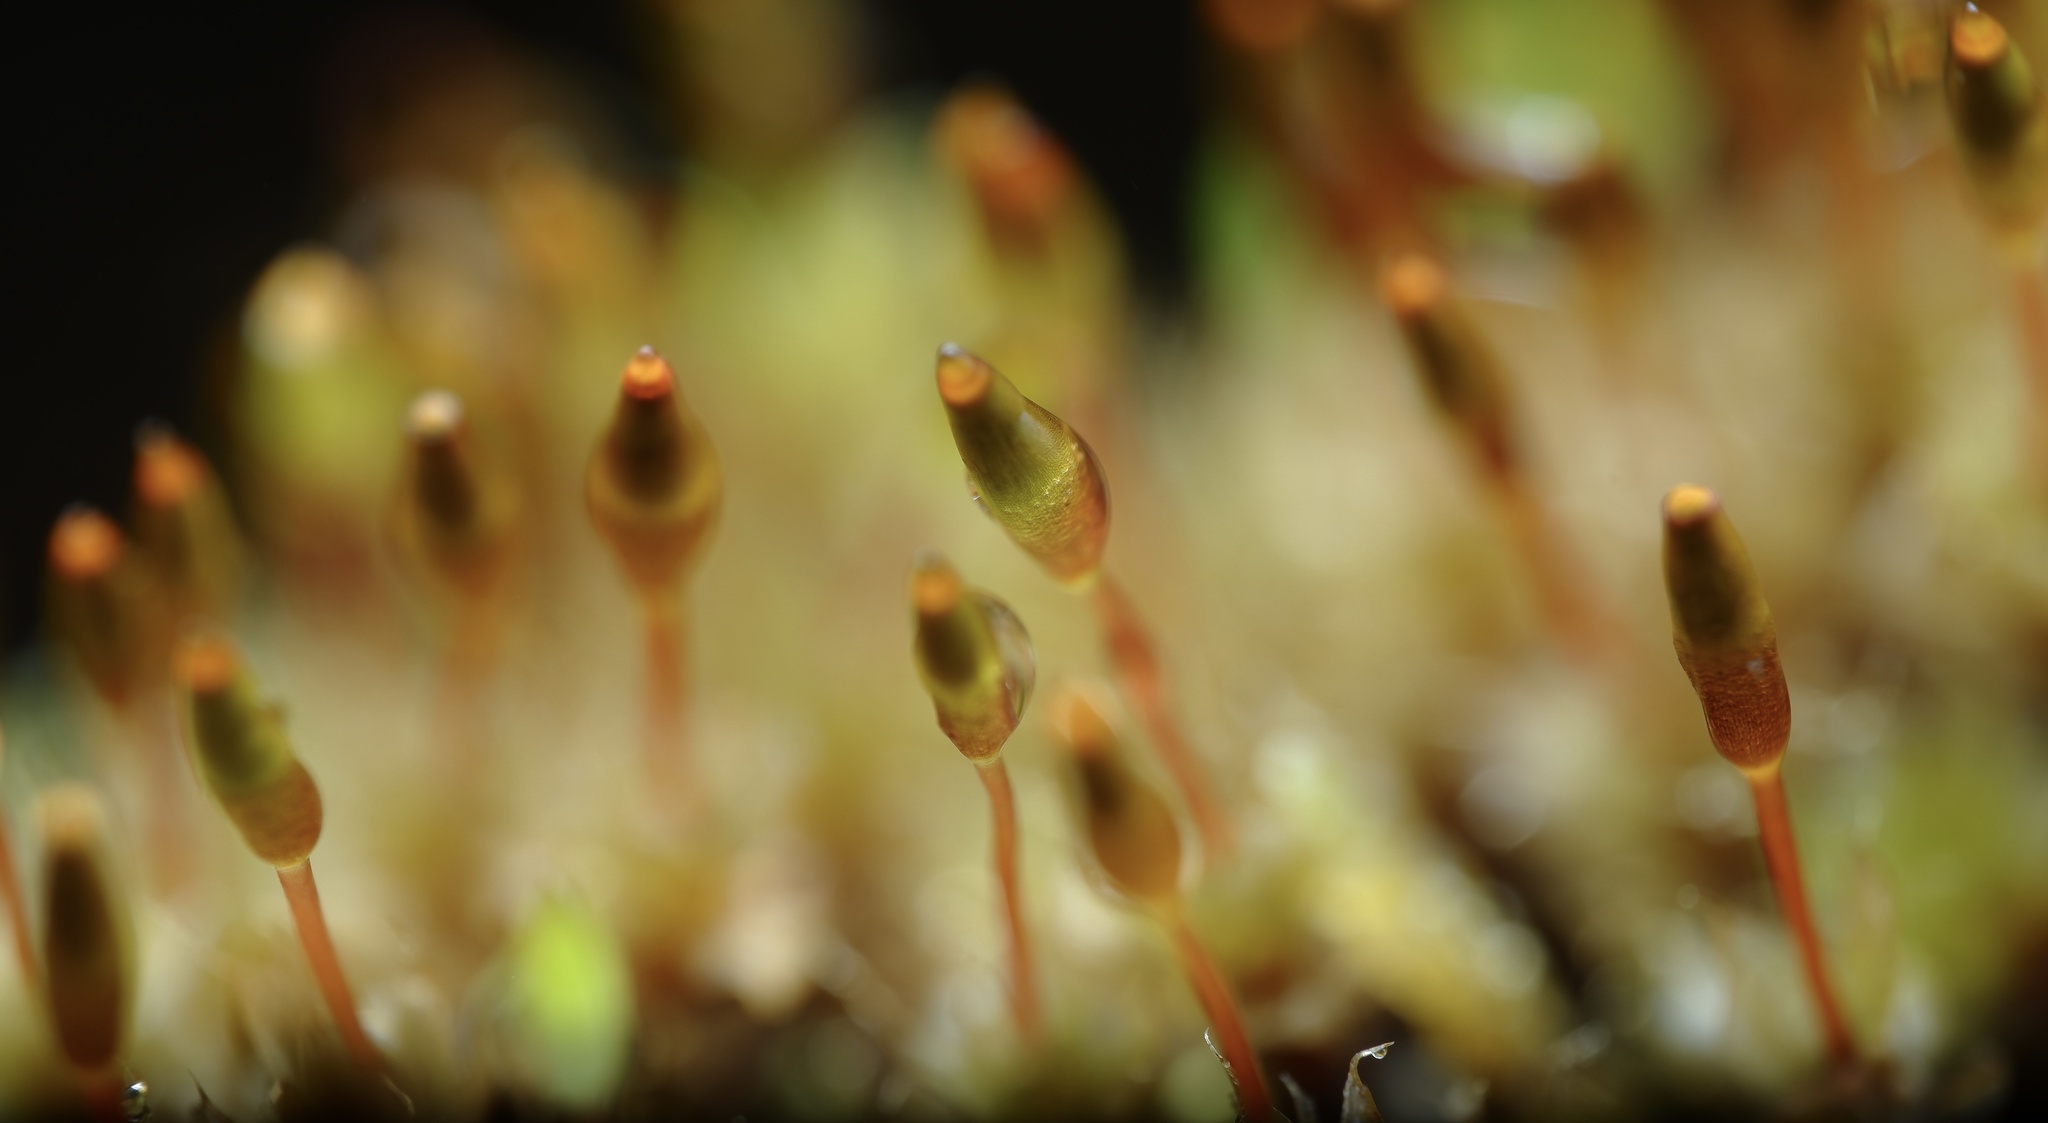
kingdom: Plantae
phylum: Bryophyta
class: Bryopsida
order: Splachnales
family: Splachnaceae
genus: Tayloria
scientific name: Tayloria octoblephara
